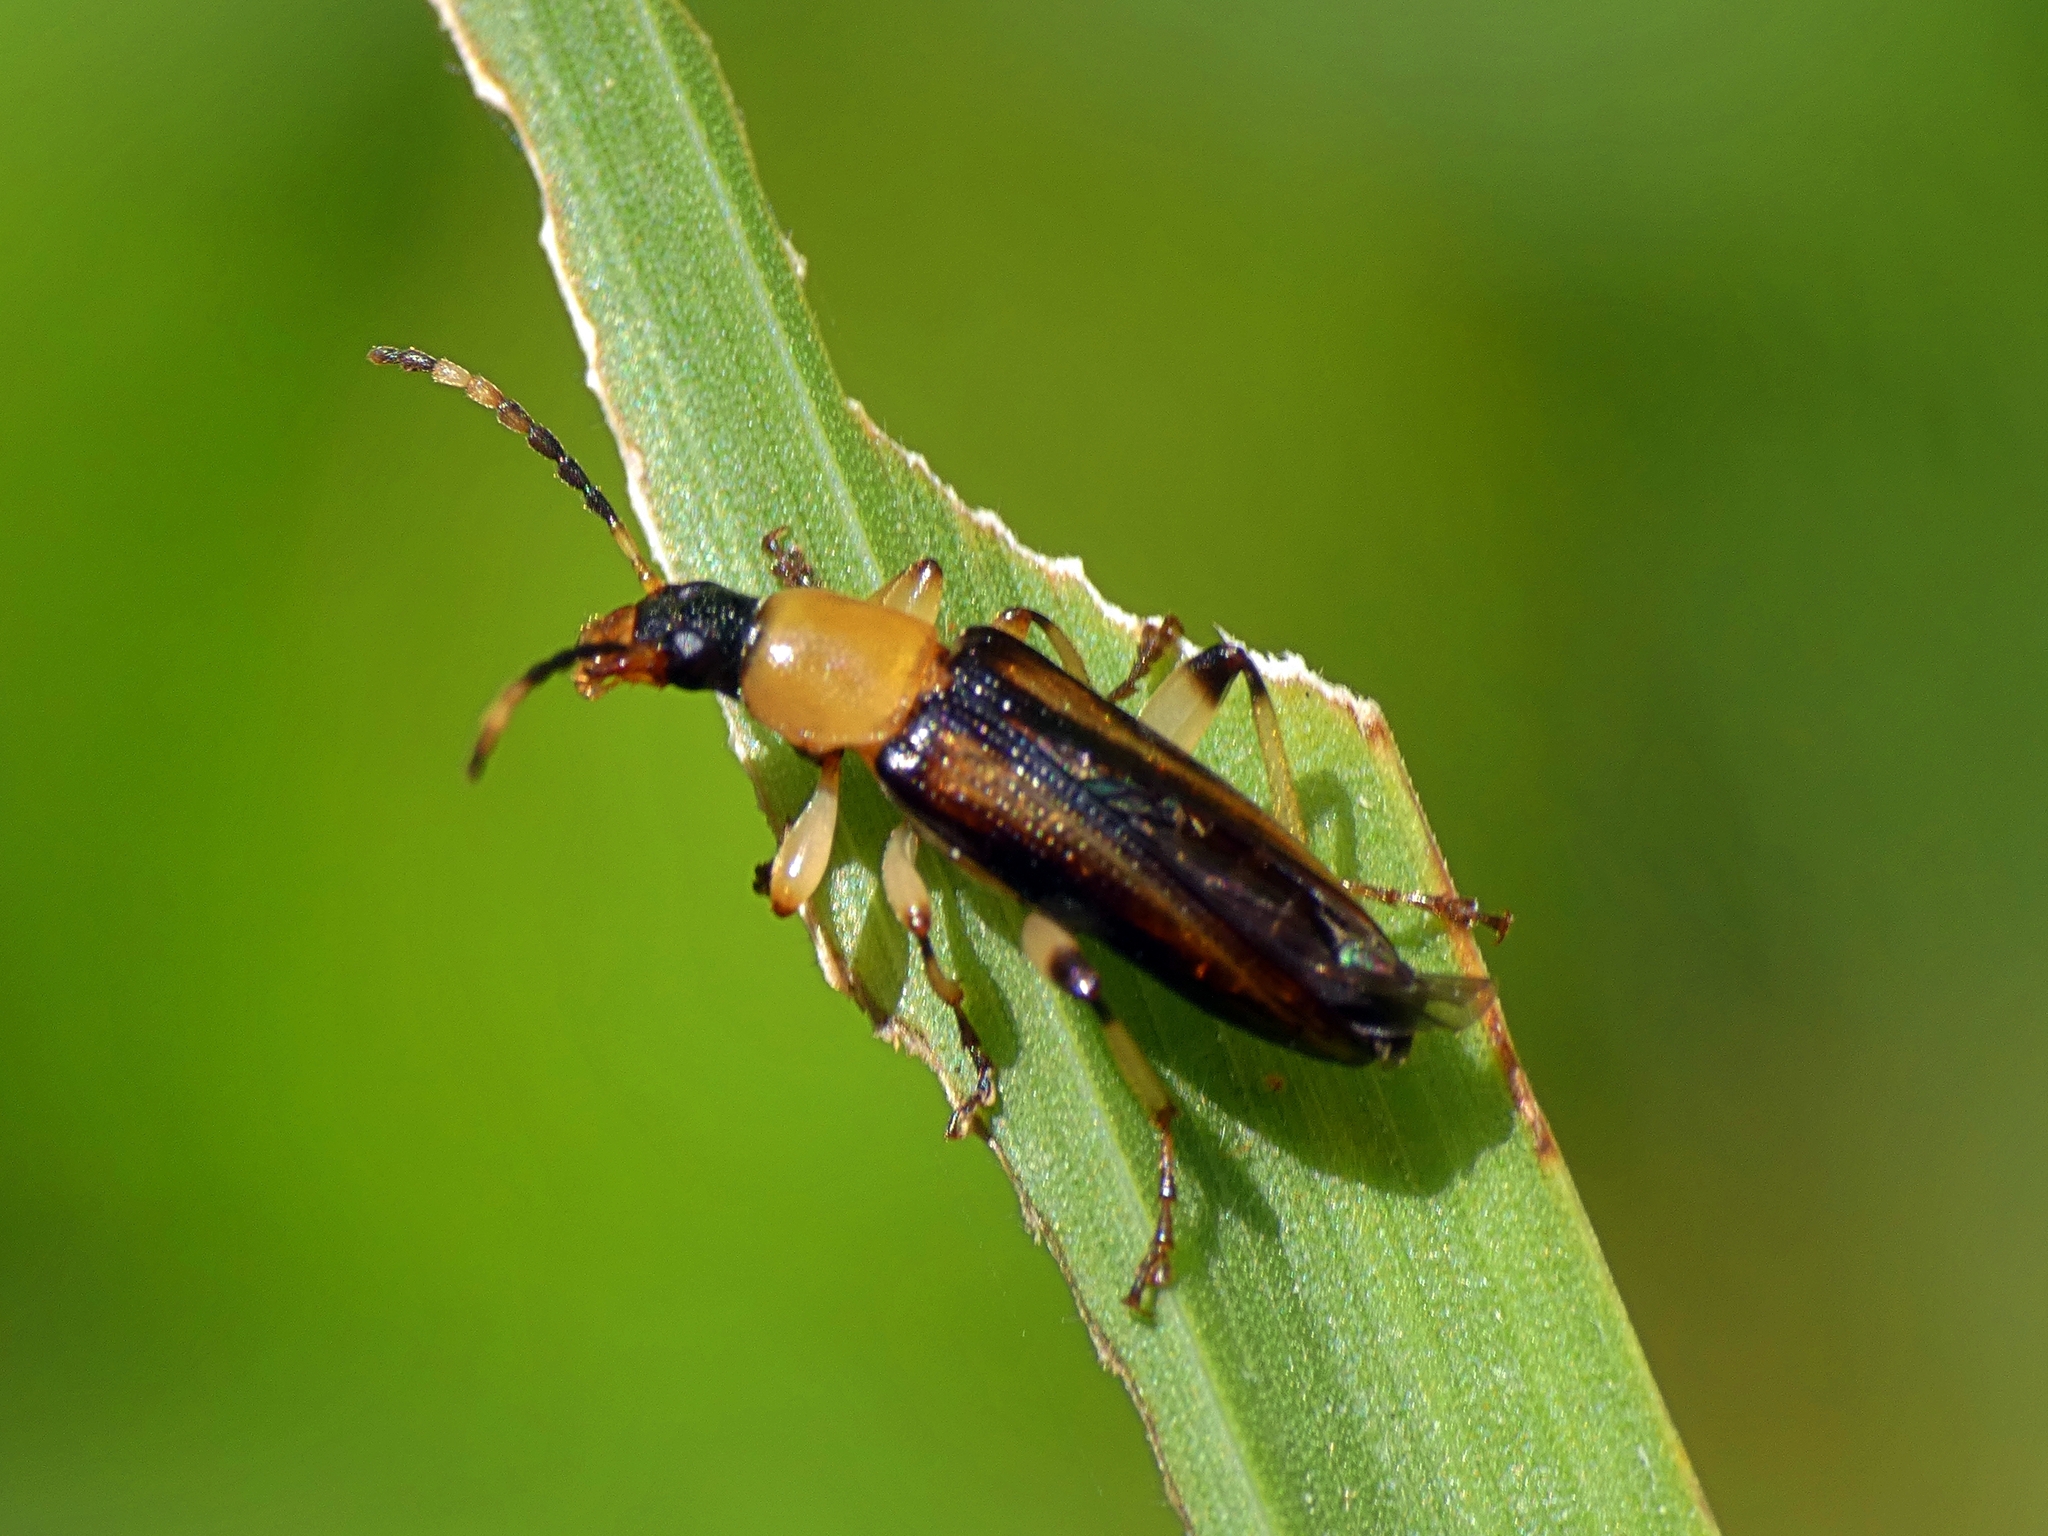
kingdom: Animalia
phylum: Arthropoda
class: Insecta
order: Coleoptera
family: Tenebrionidae
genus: Lepturidea
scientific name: Lepturidea
